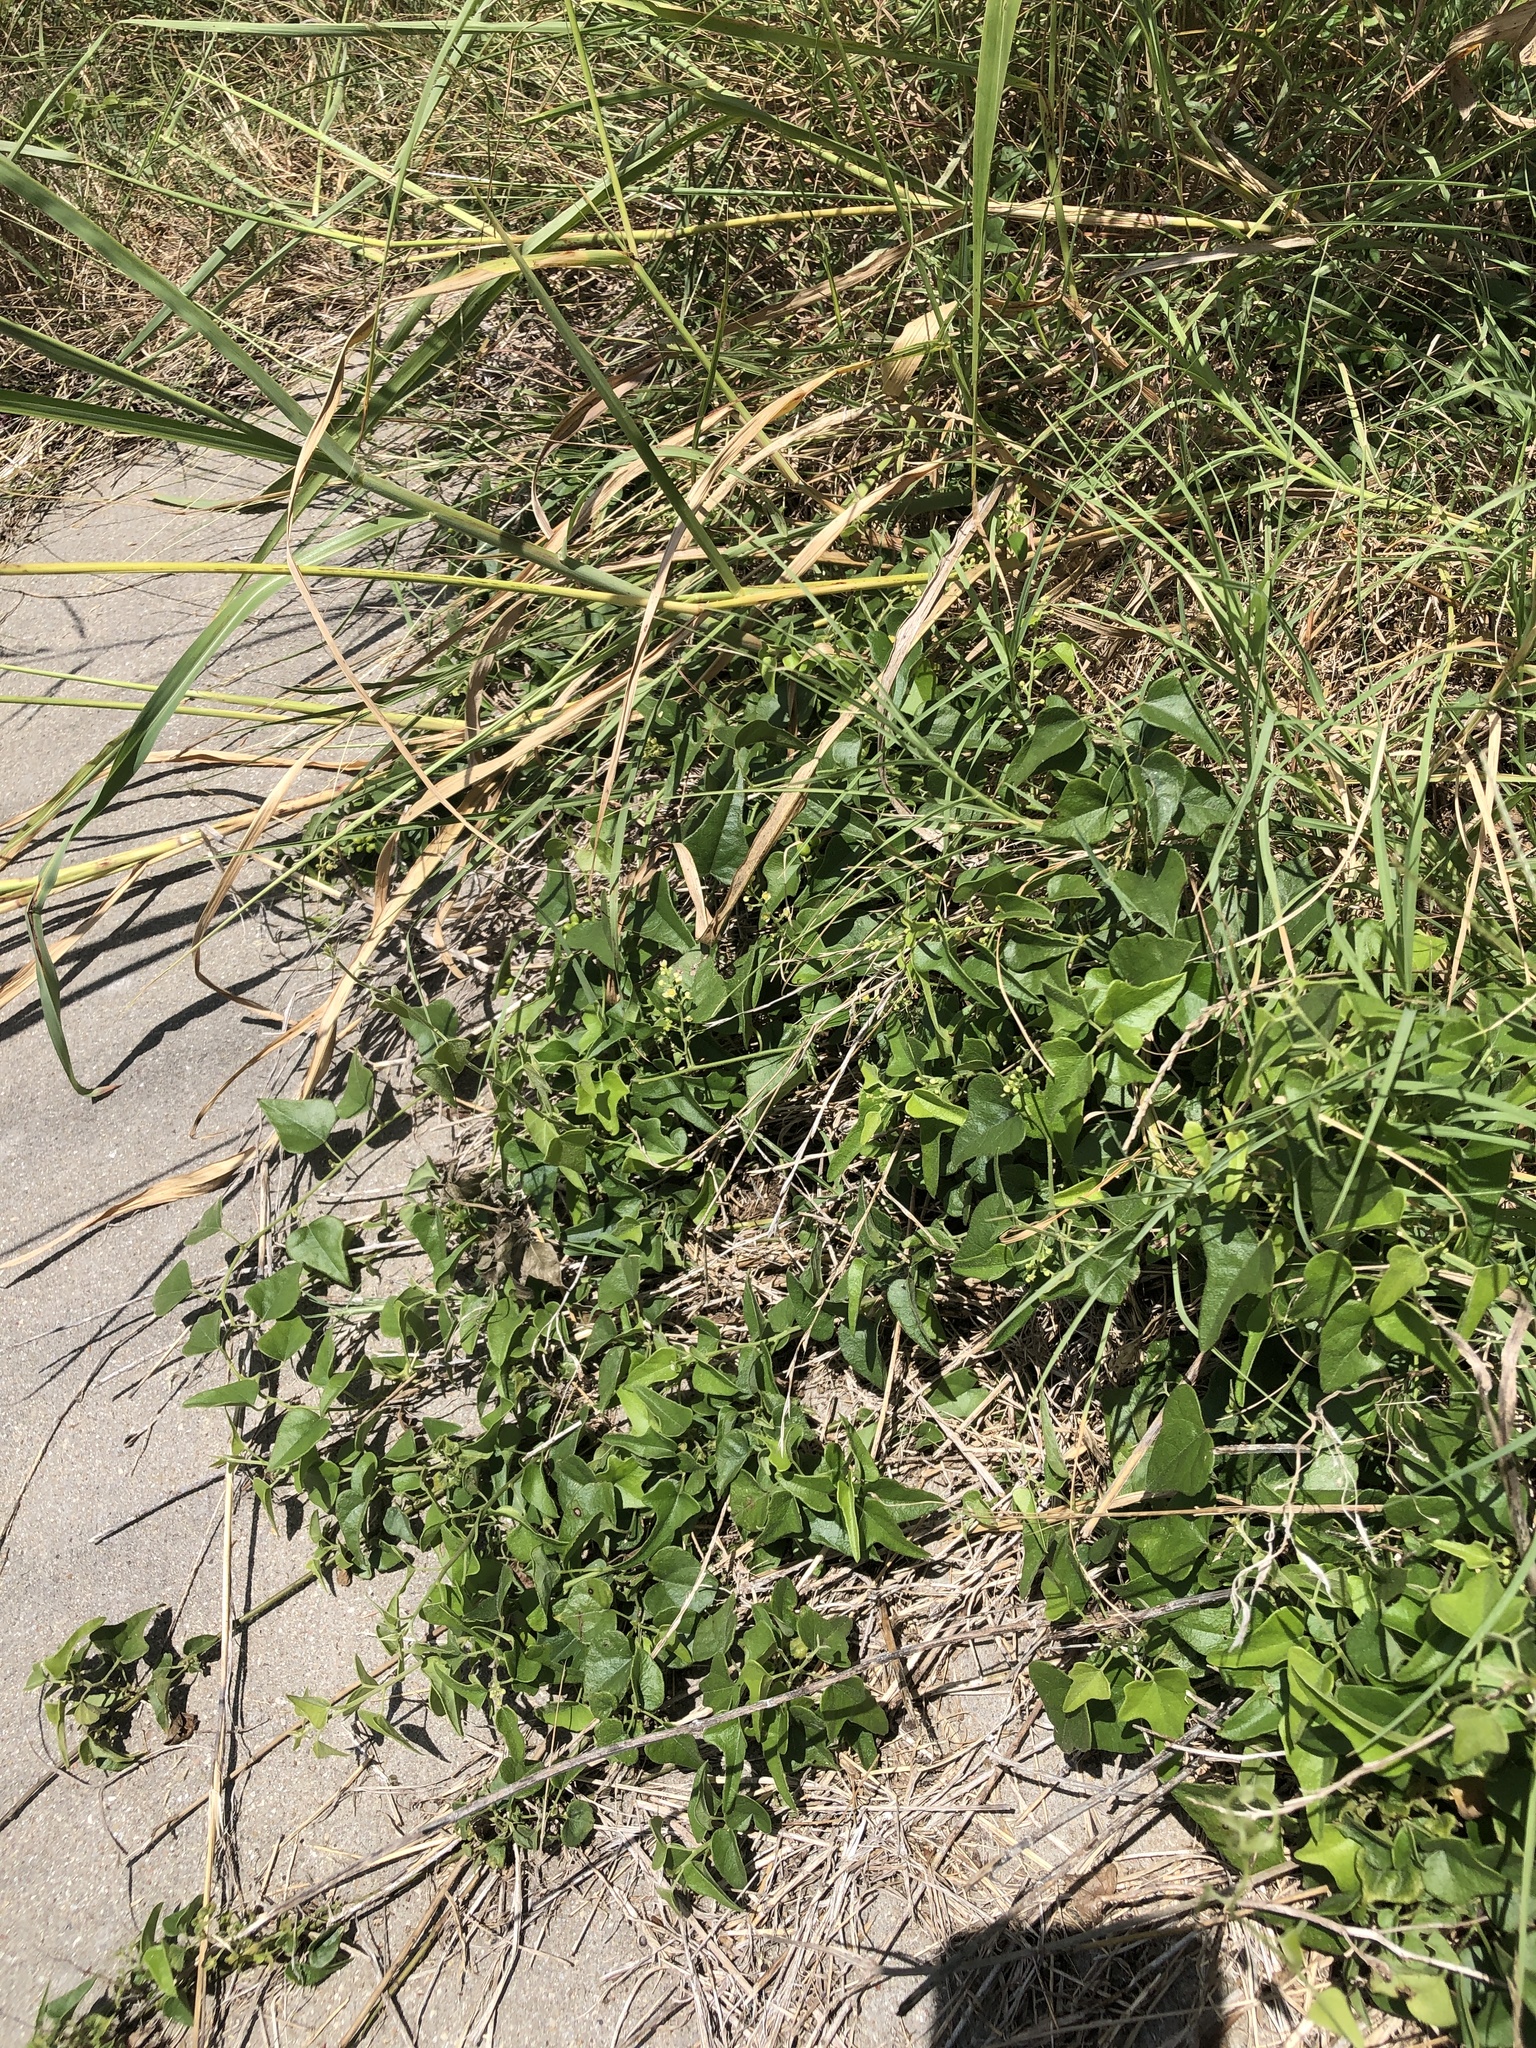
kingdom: Plantae
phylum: Tracheophyta
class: Magnoliopsida
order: Ranunculales
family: Menispermaceae
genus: Cocculus
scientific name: Cocculus carolinus
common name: Carolina moonseed
